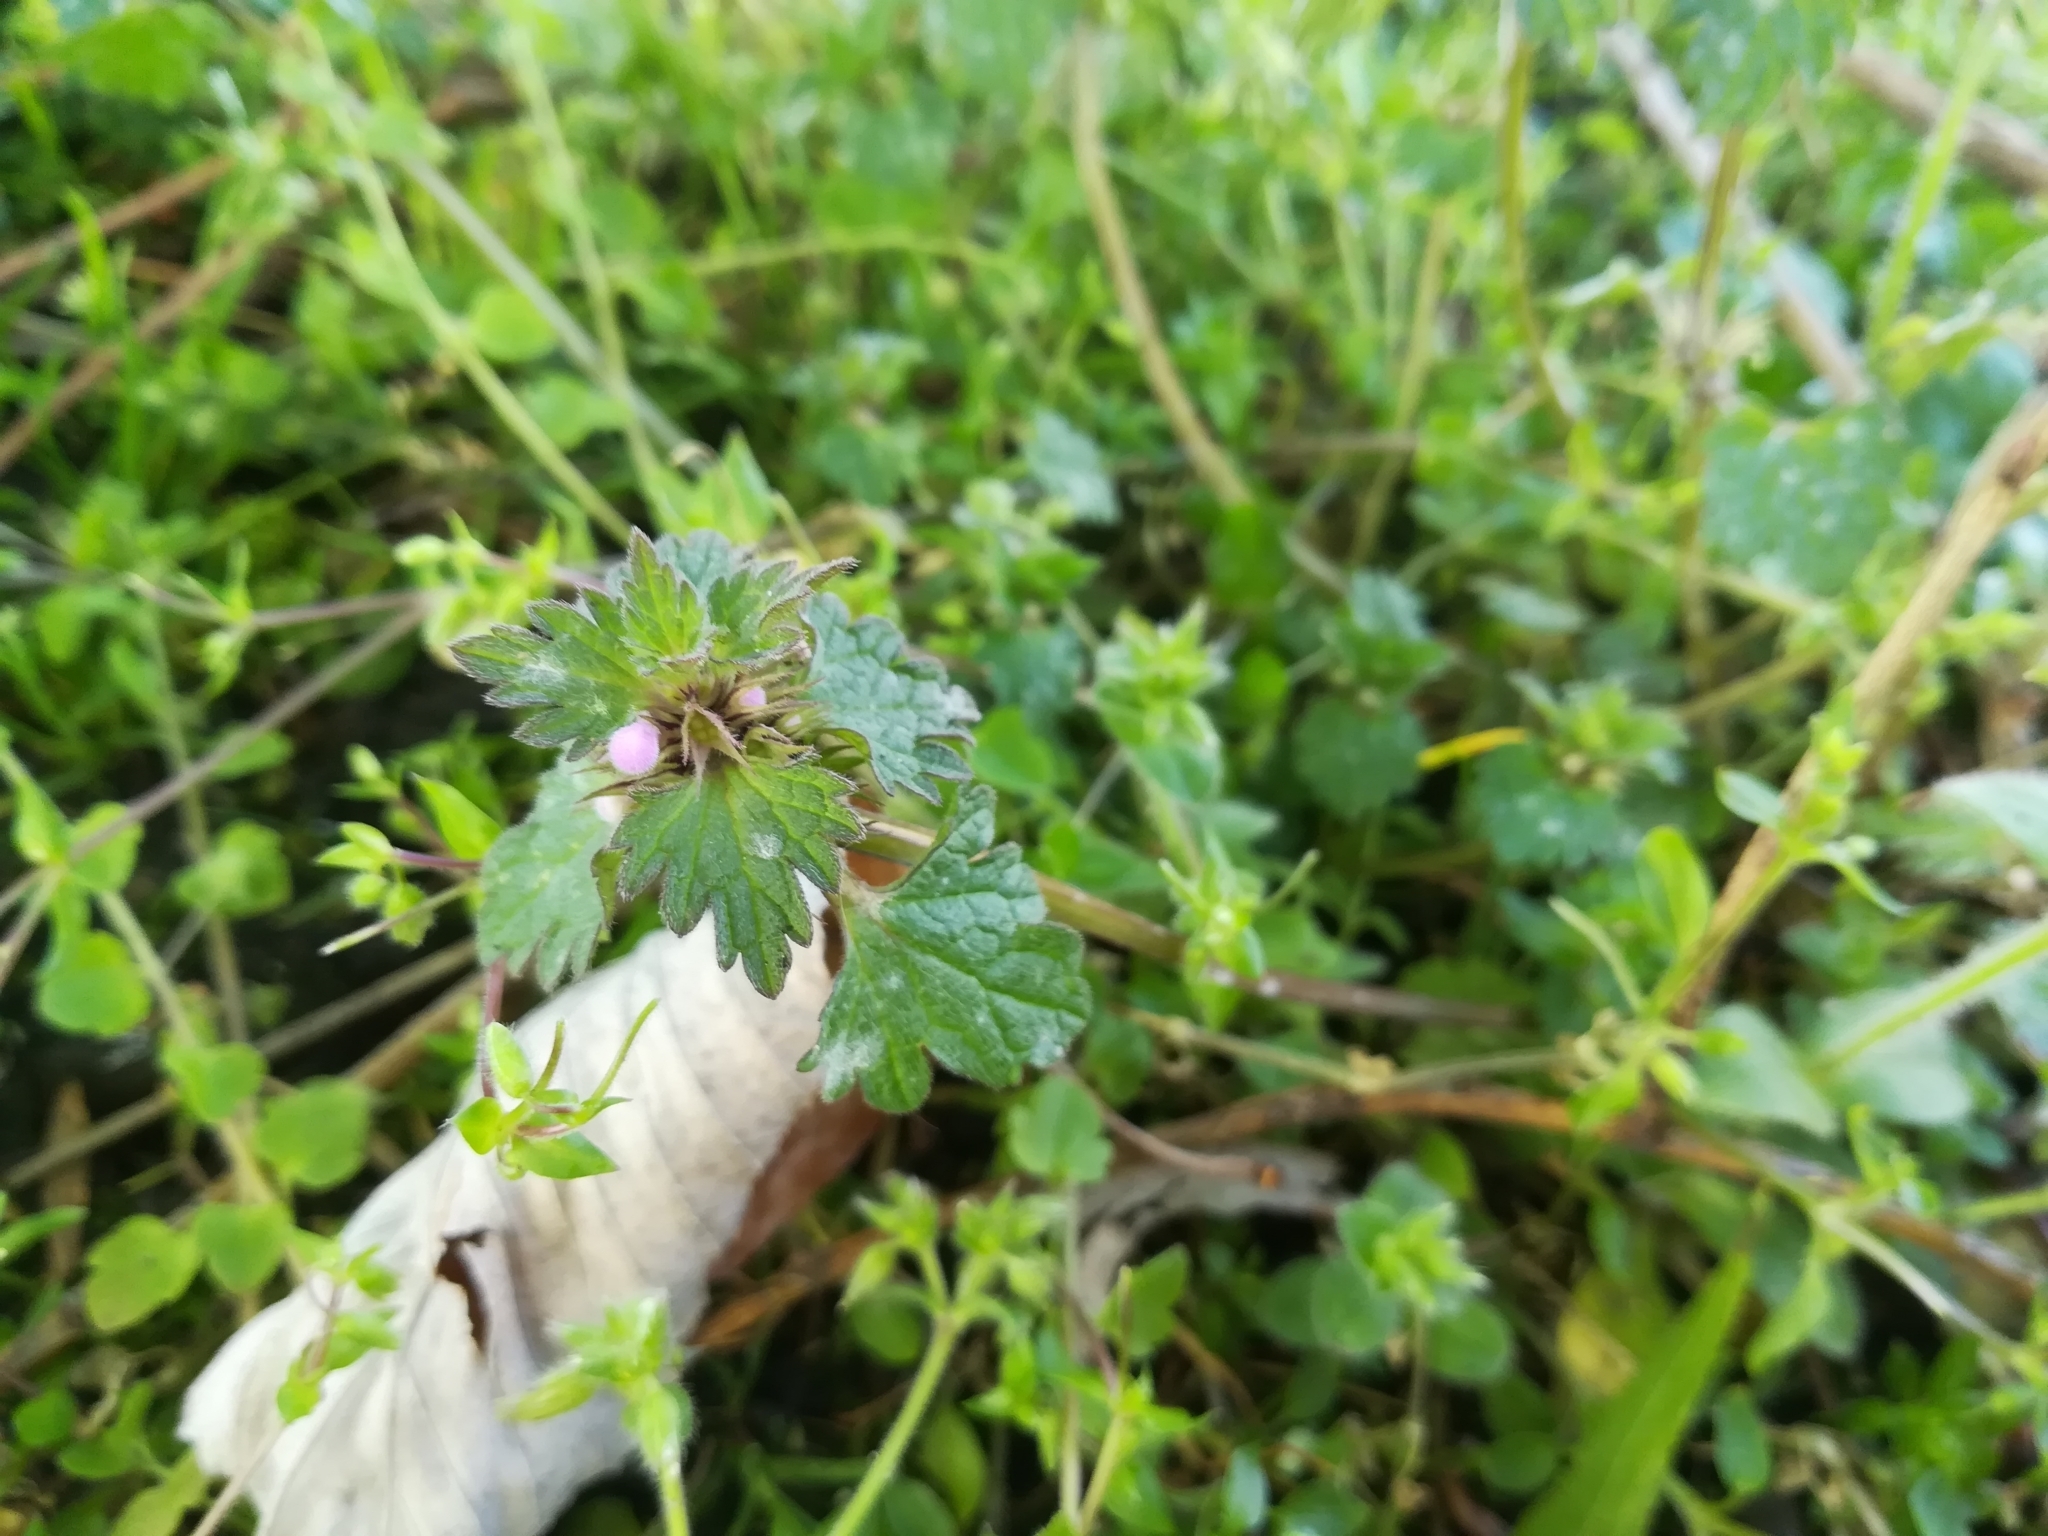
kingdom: Plantae
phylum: Tracheophyta
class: Magnoliopsida
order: Lamiales
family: Lamiaceae
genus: Lamium
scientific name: Lamium hybridum
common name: Cut-leaved dead-nettle
